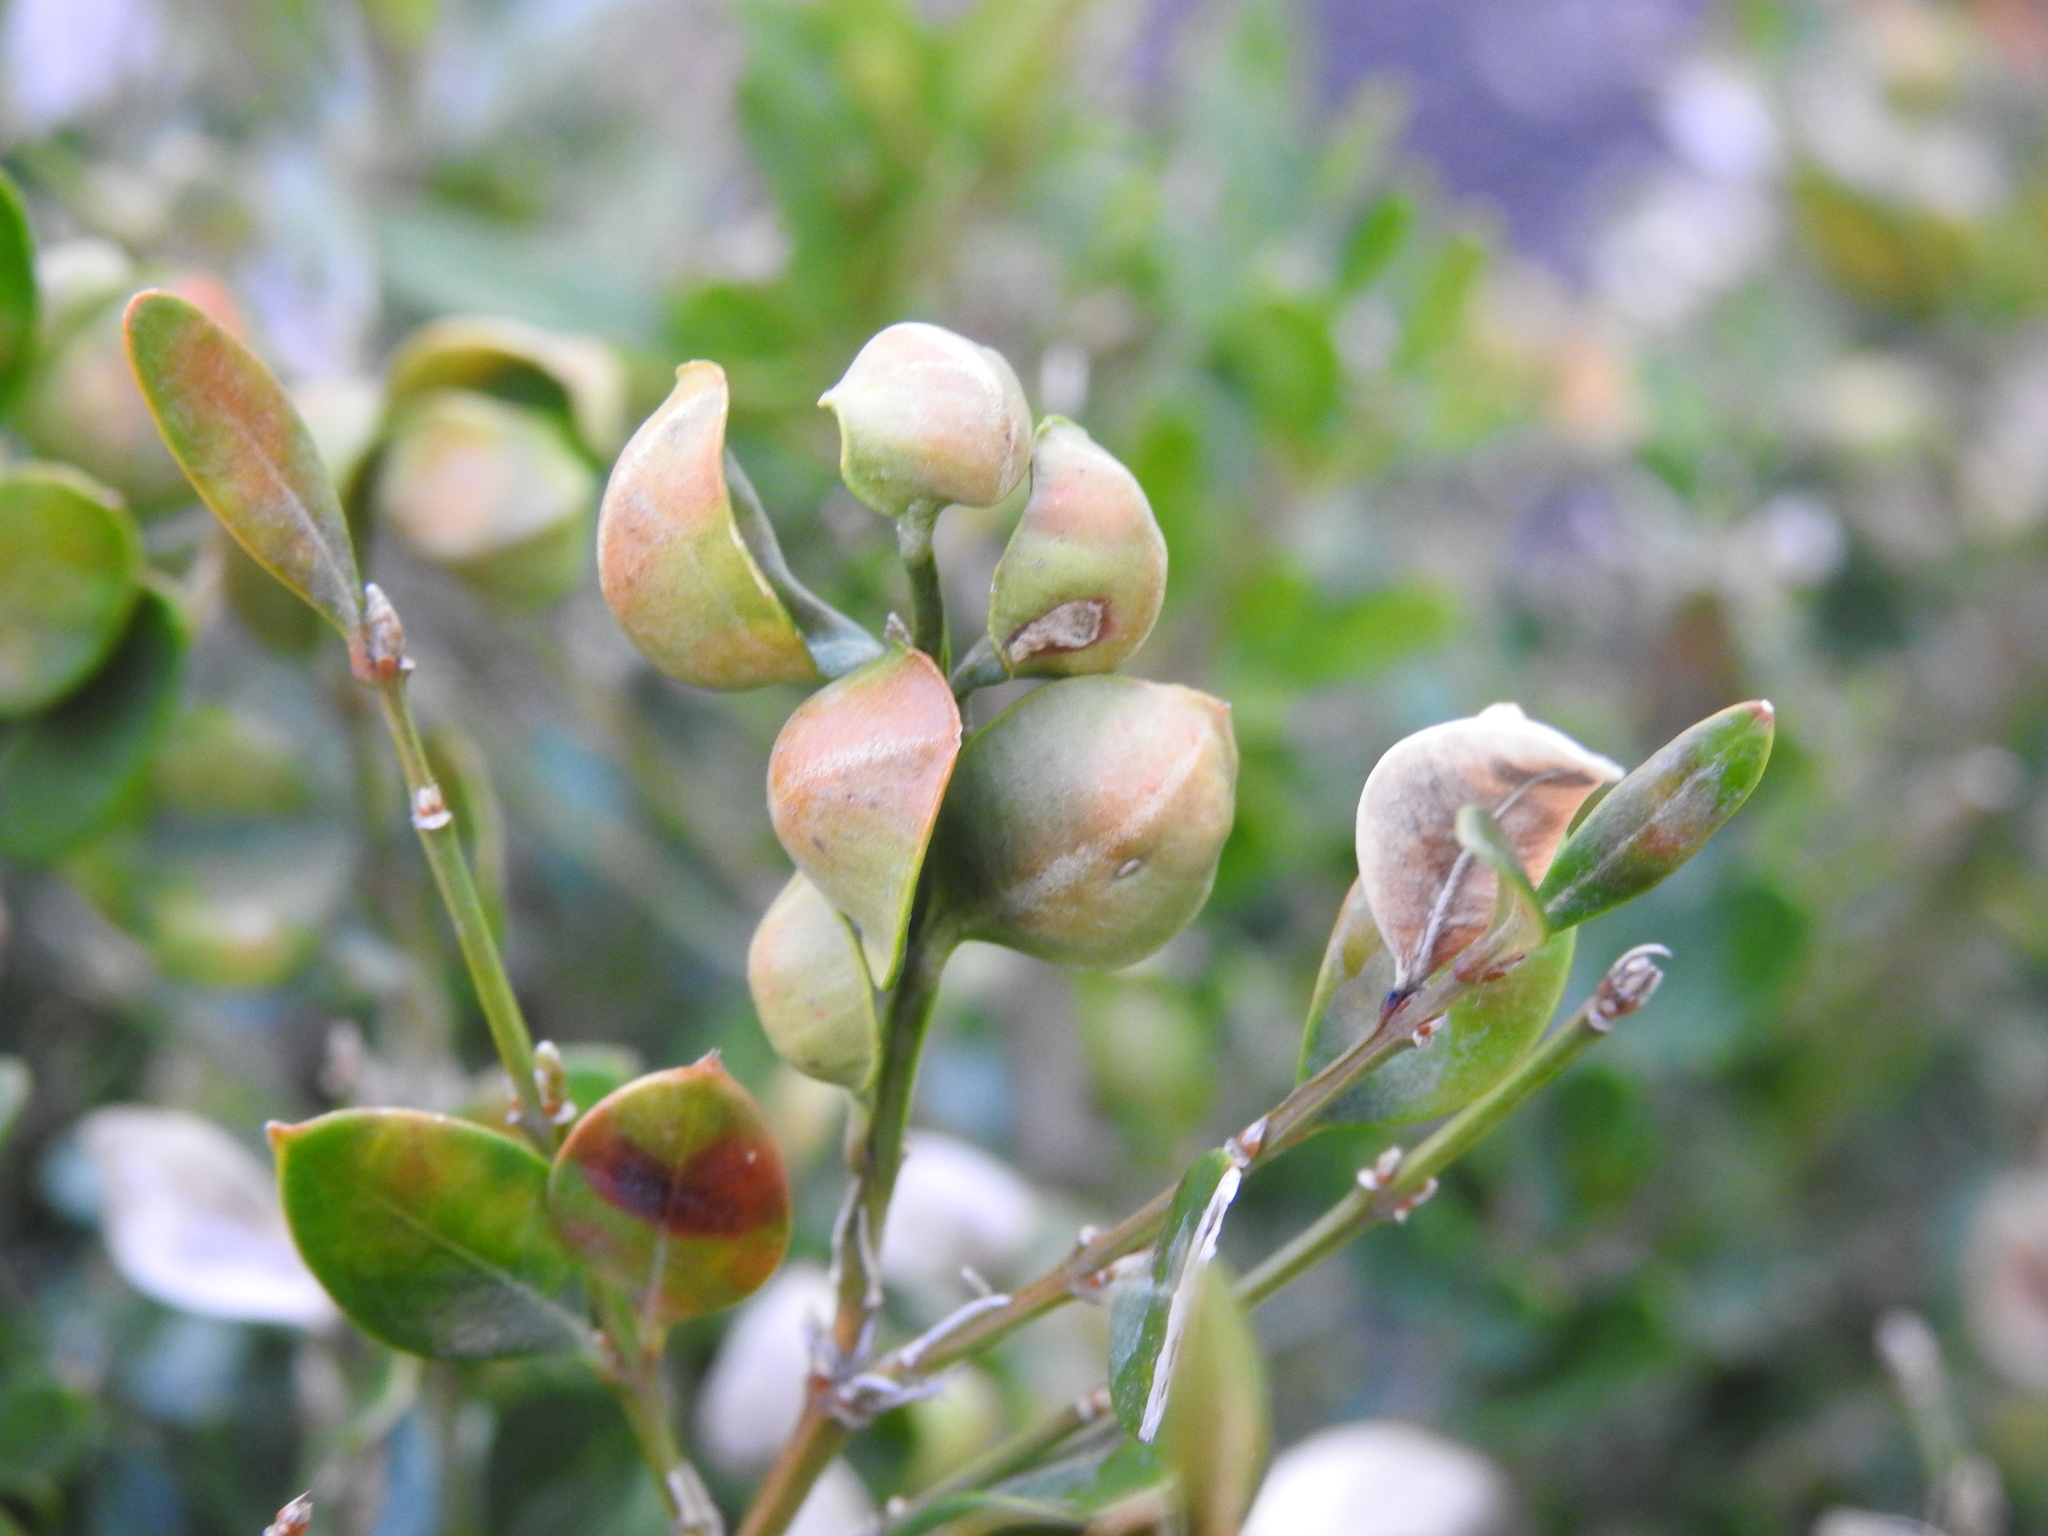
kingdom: Animalia
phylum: Arthropoda
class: Insecta
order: Hemiptera
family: Psyllidae
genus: Psylla
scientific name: Psylla buxi
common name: Boxwood psyllid
